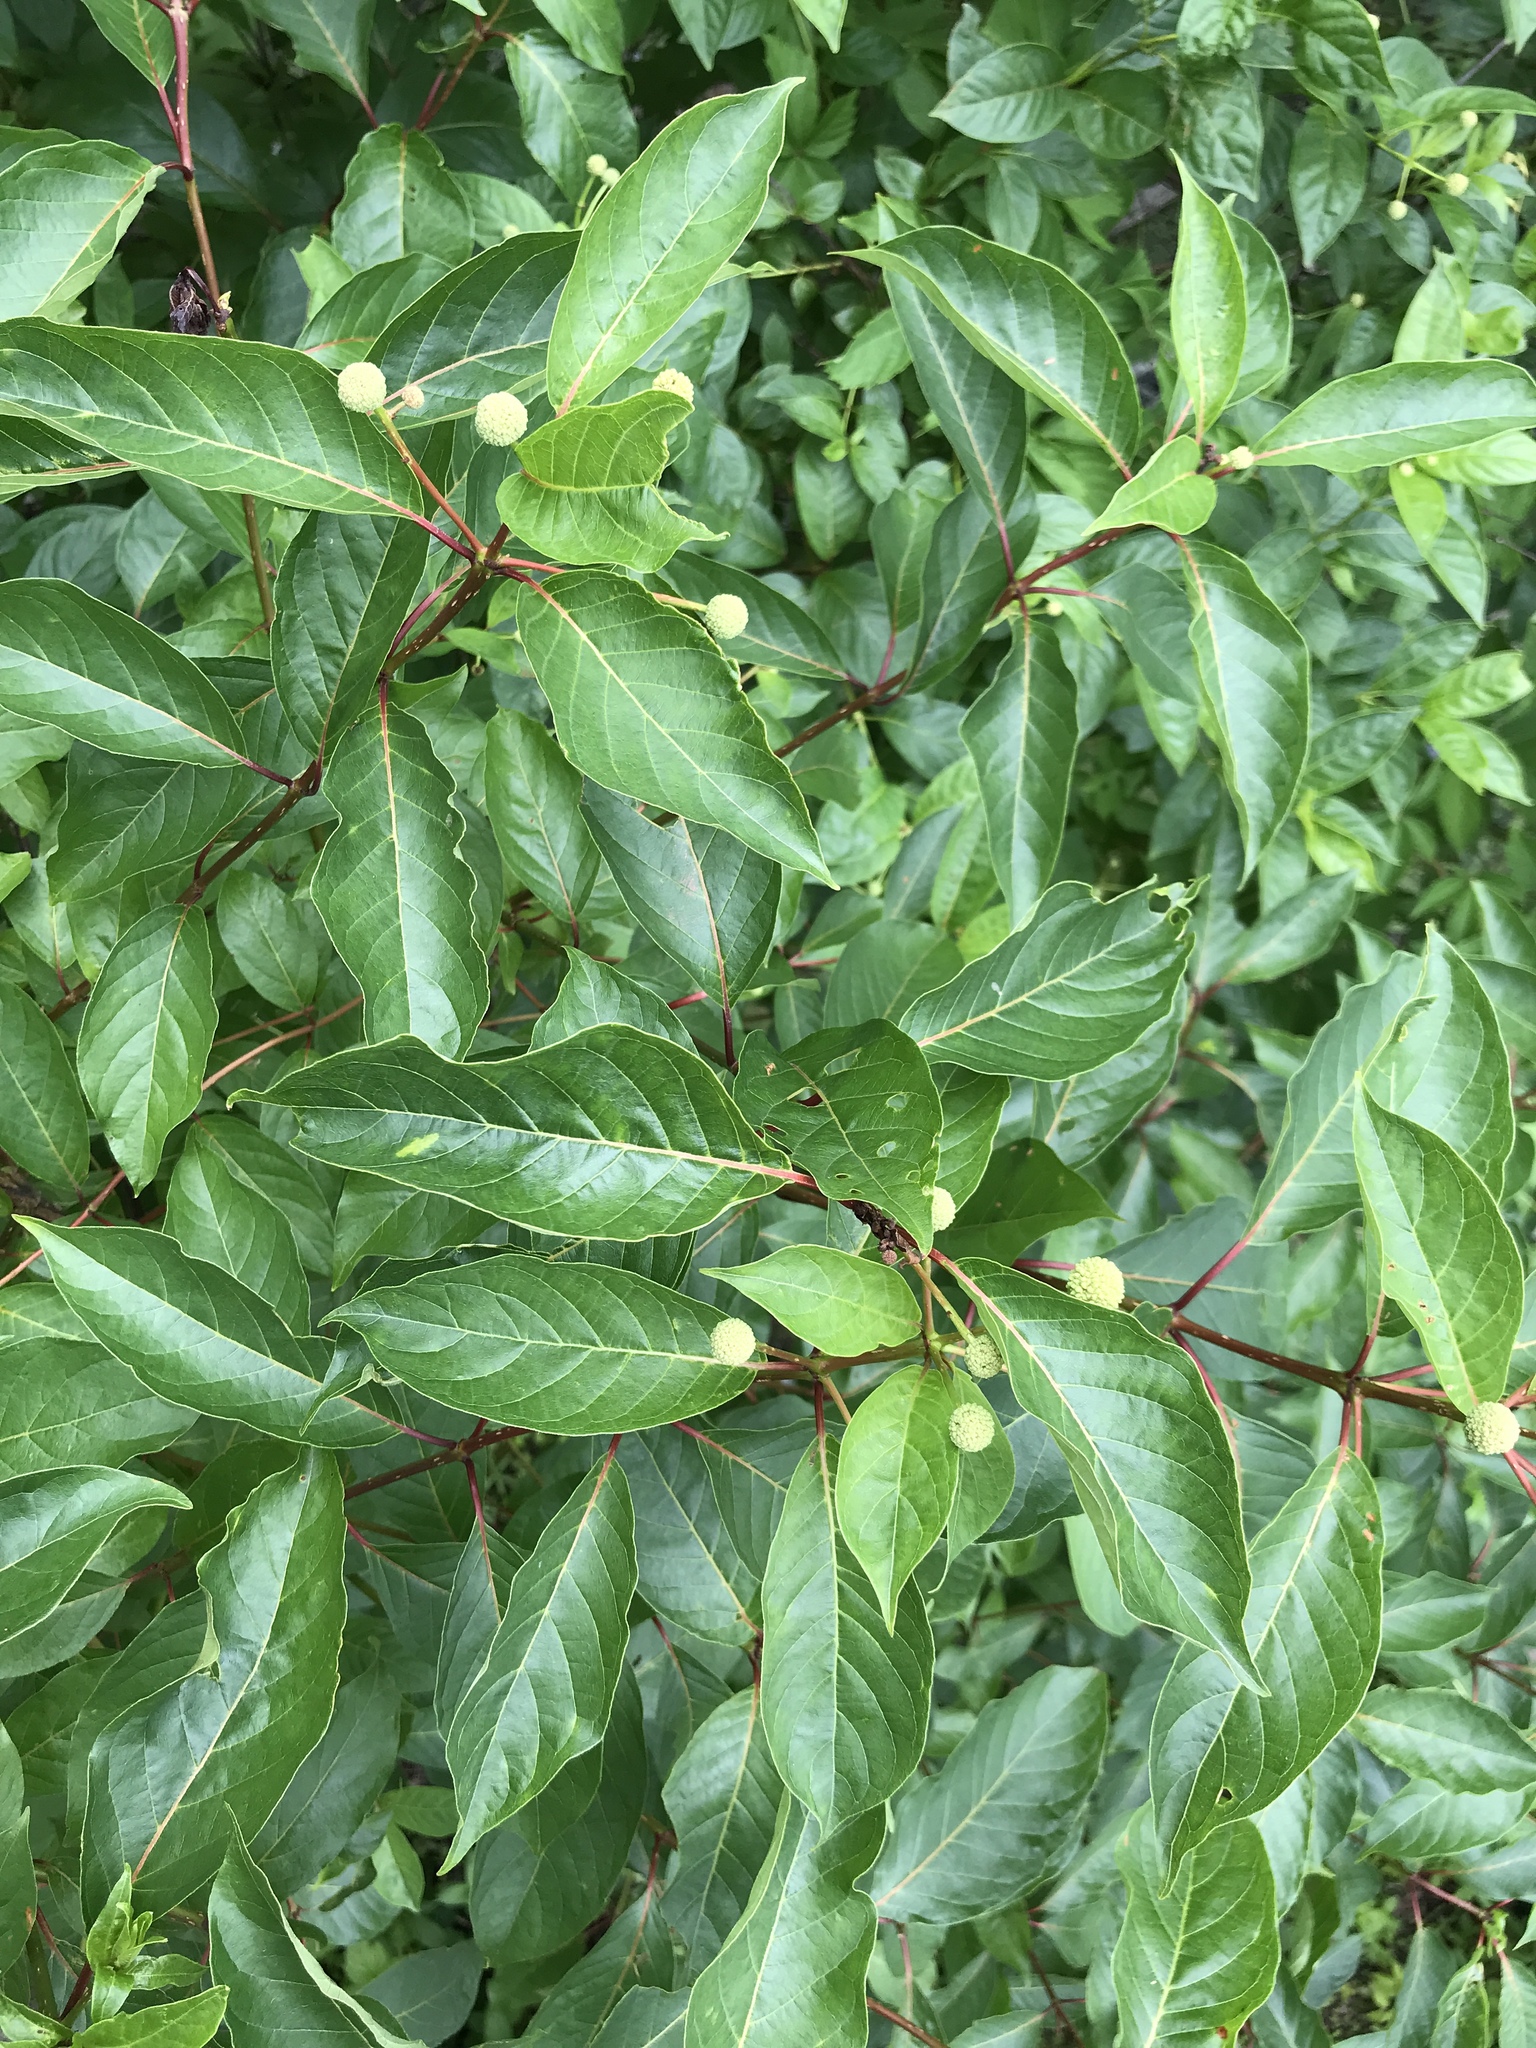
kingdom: Plantae
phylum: Tracheophyta
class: Magnoliopsida
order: Gentianales
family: Rubiaceae
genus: Cephalanthus
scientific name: Cephalanthus occidentalis
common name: Button-willow
